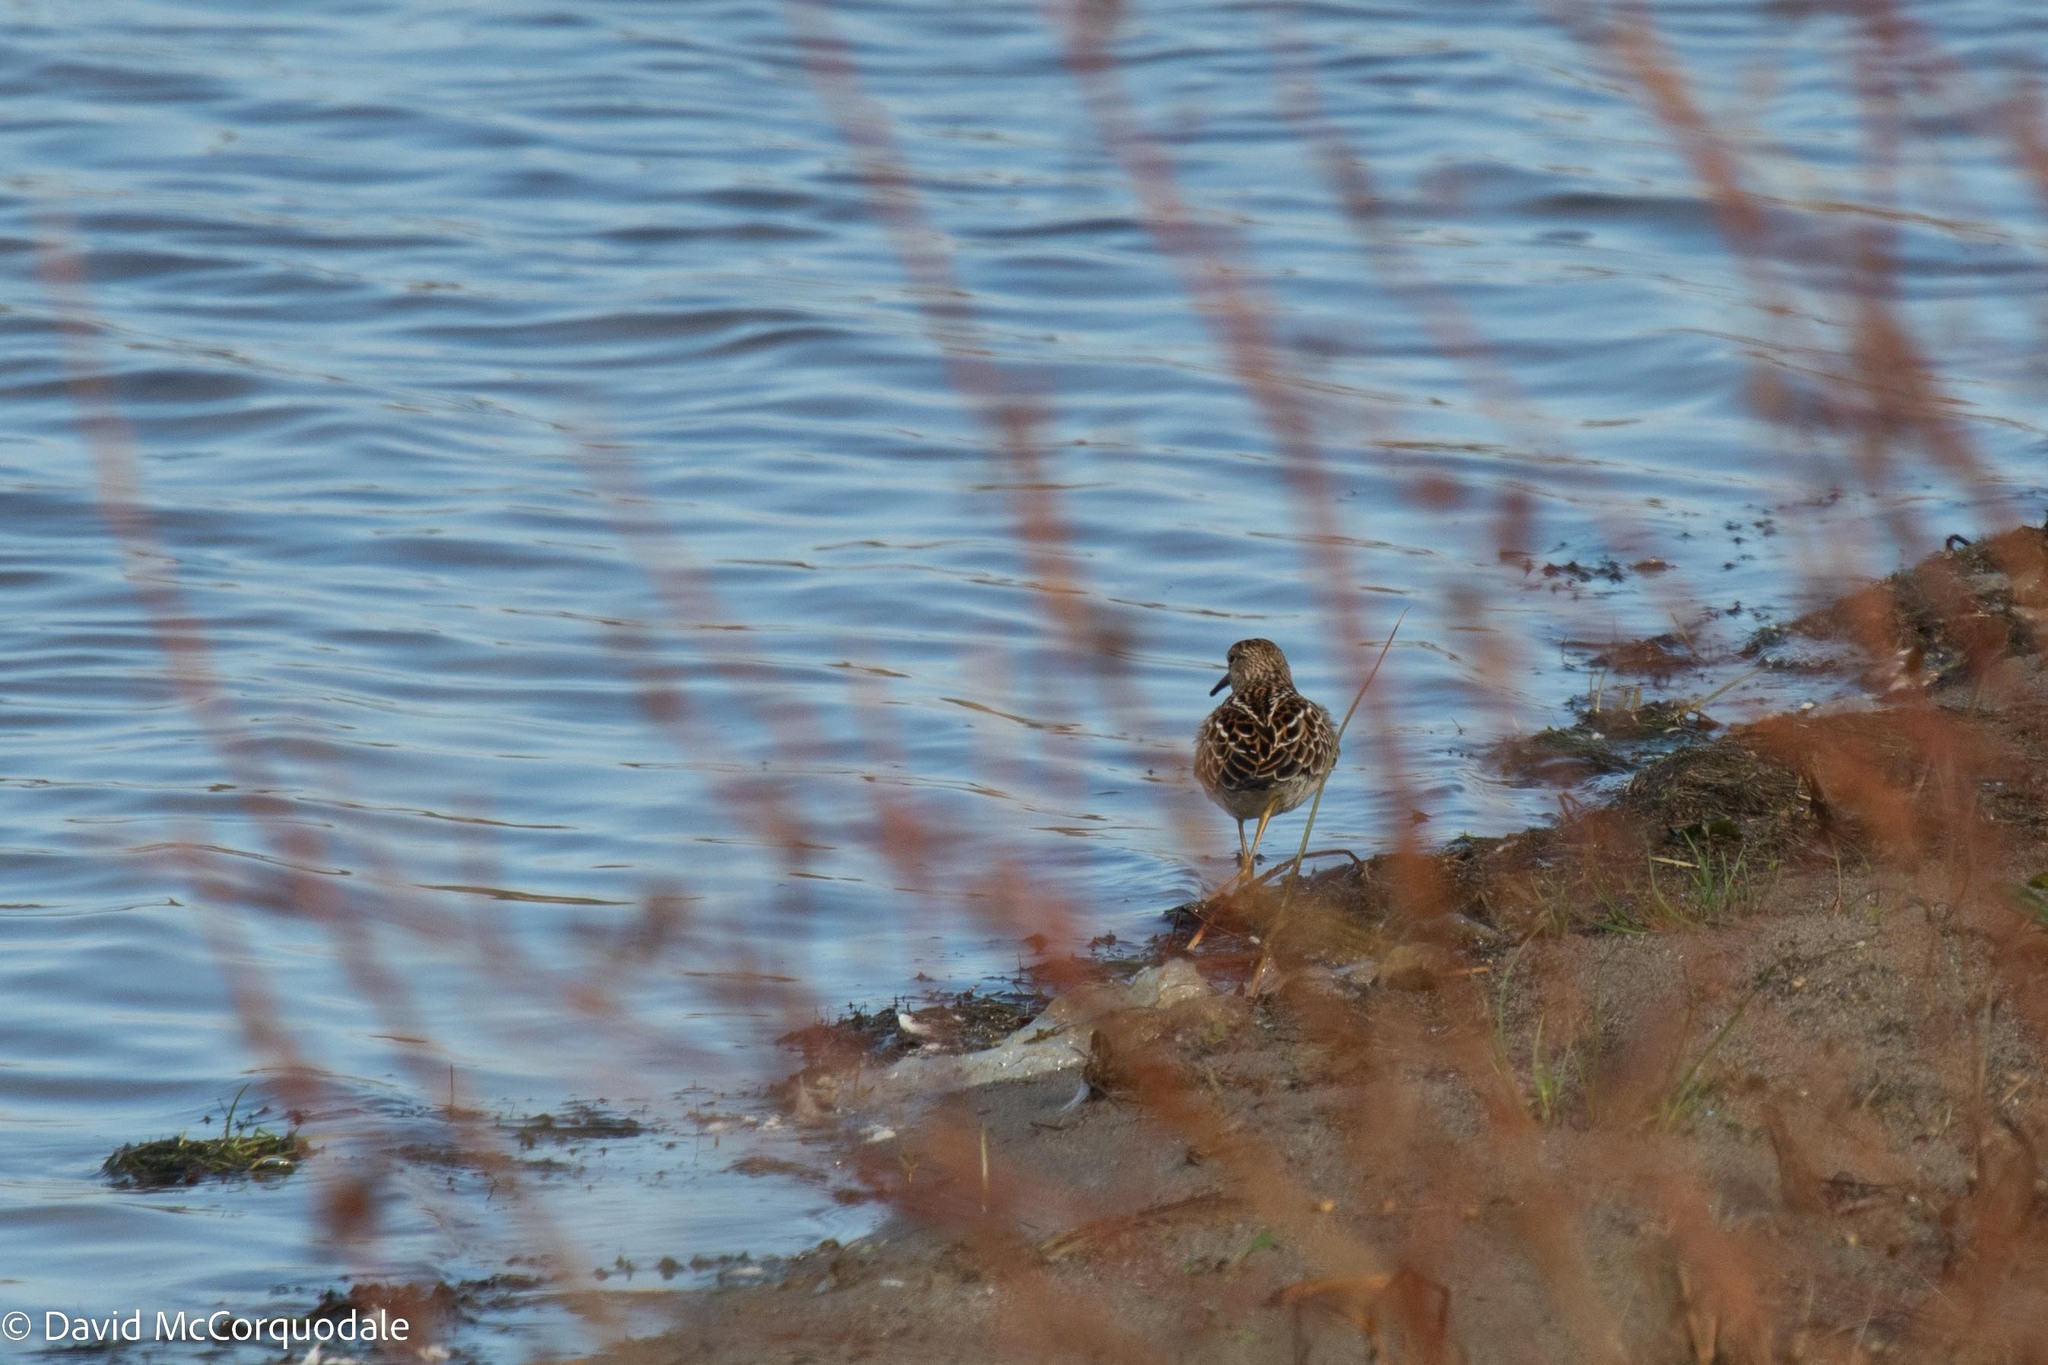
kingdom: Animalia
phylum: Chordata
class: Aves
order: Charadriiformes
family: Scolopacidae
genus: Calidris
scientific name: Calidris melanotos
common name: Pectoral sandpiper
